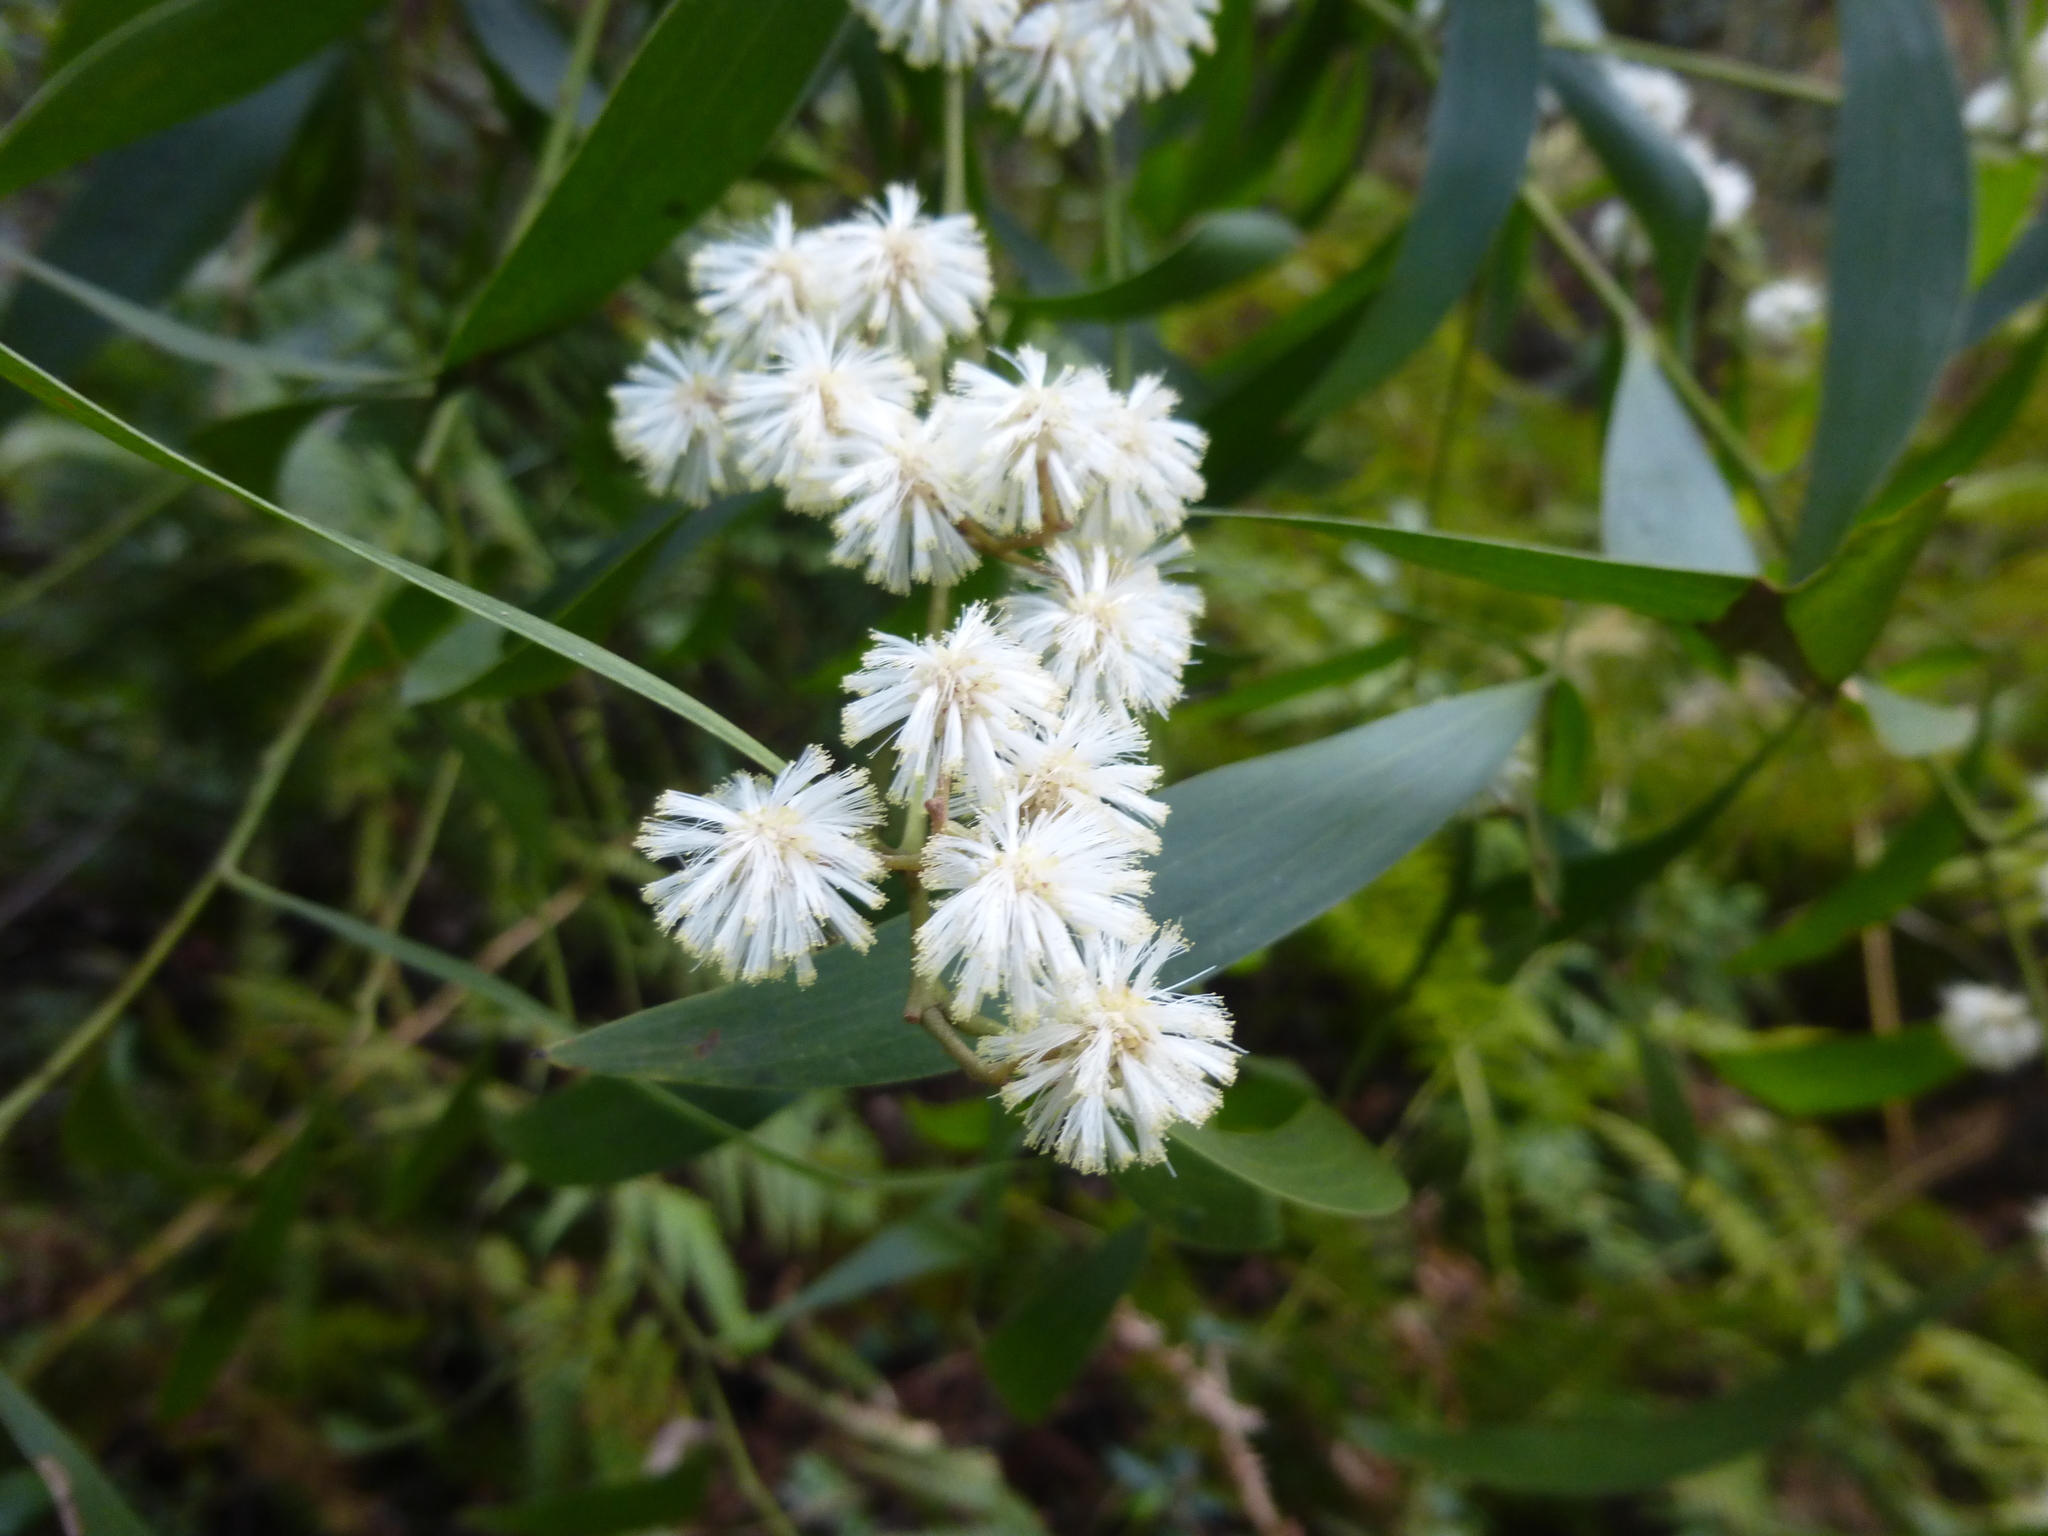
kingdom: Plantae
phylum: Tracheophyta
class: Magnoliopsida
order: Fabales
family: Fabaceae
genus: Acacia
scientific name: Acacia melanoxylon
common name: Blackwood
